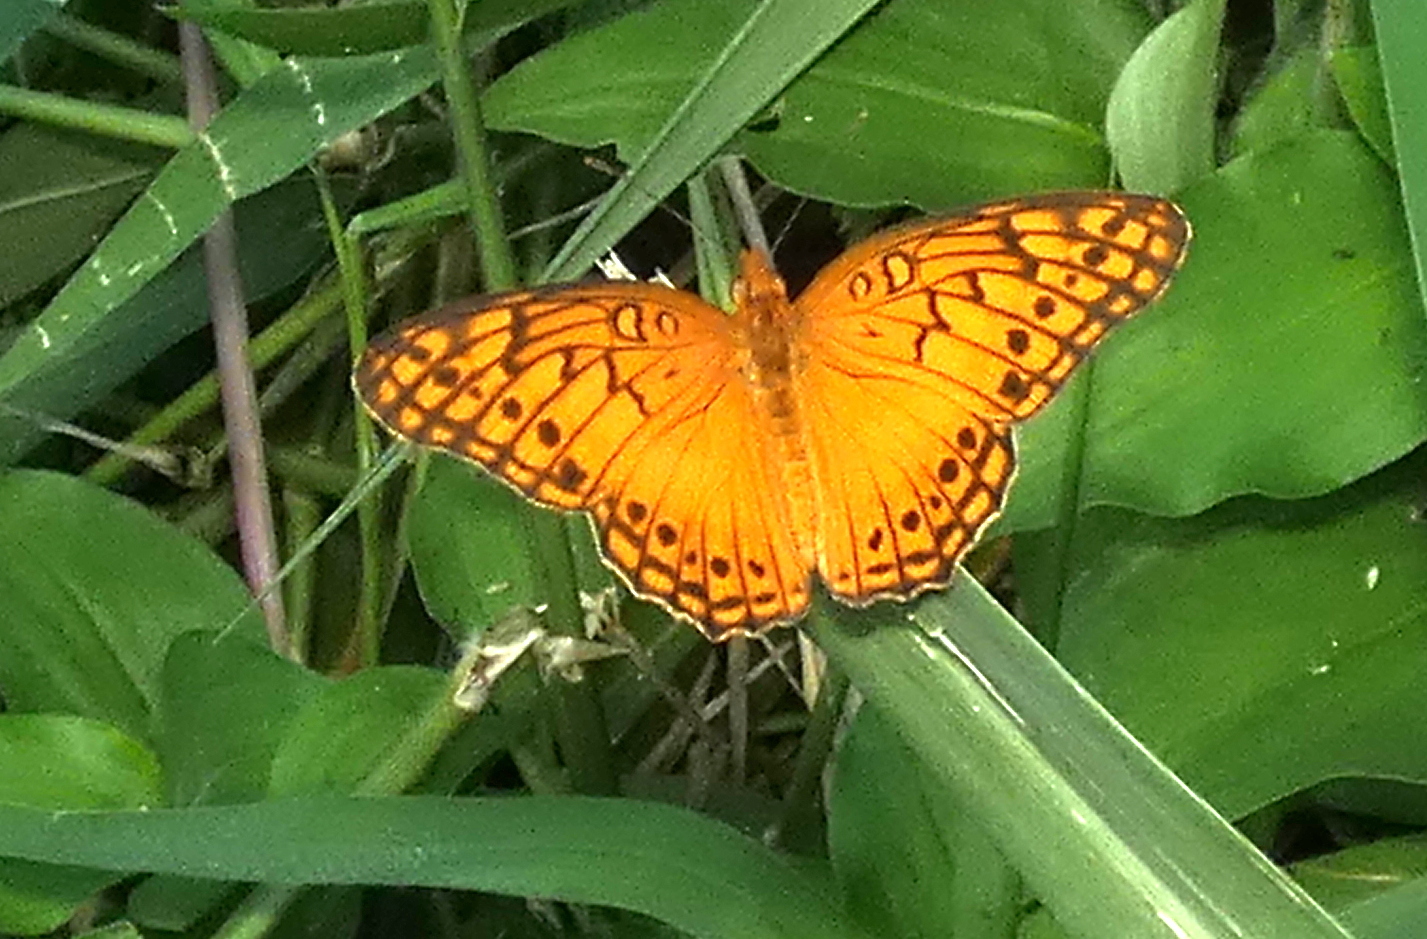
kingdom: Animalia
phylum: Arthropoda
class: Insecta
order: Lepidoptera
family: Nymphalidae
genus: Euptoieta
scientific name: Euptoieta hegesia
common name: Mexican fritillary
